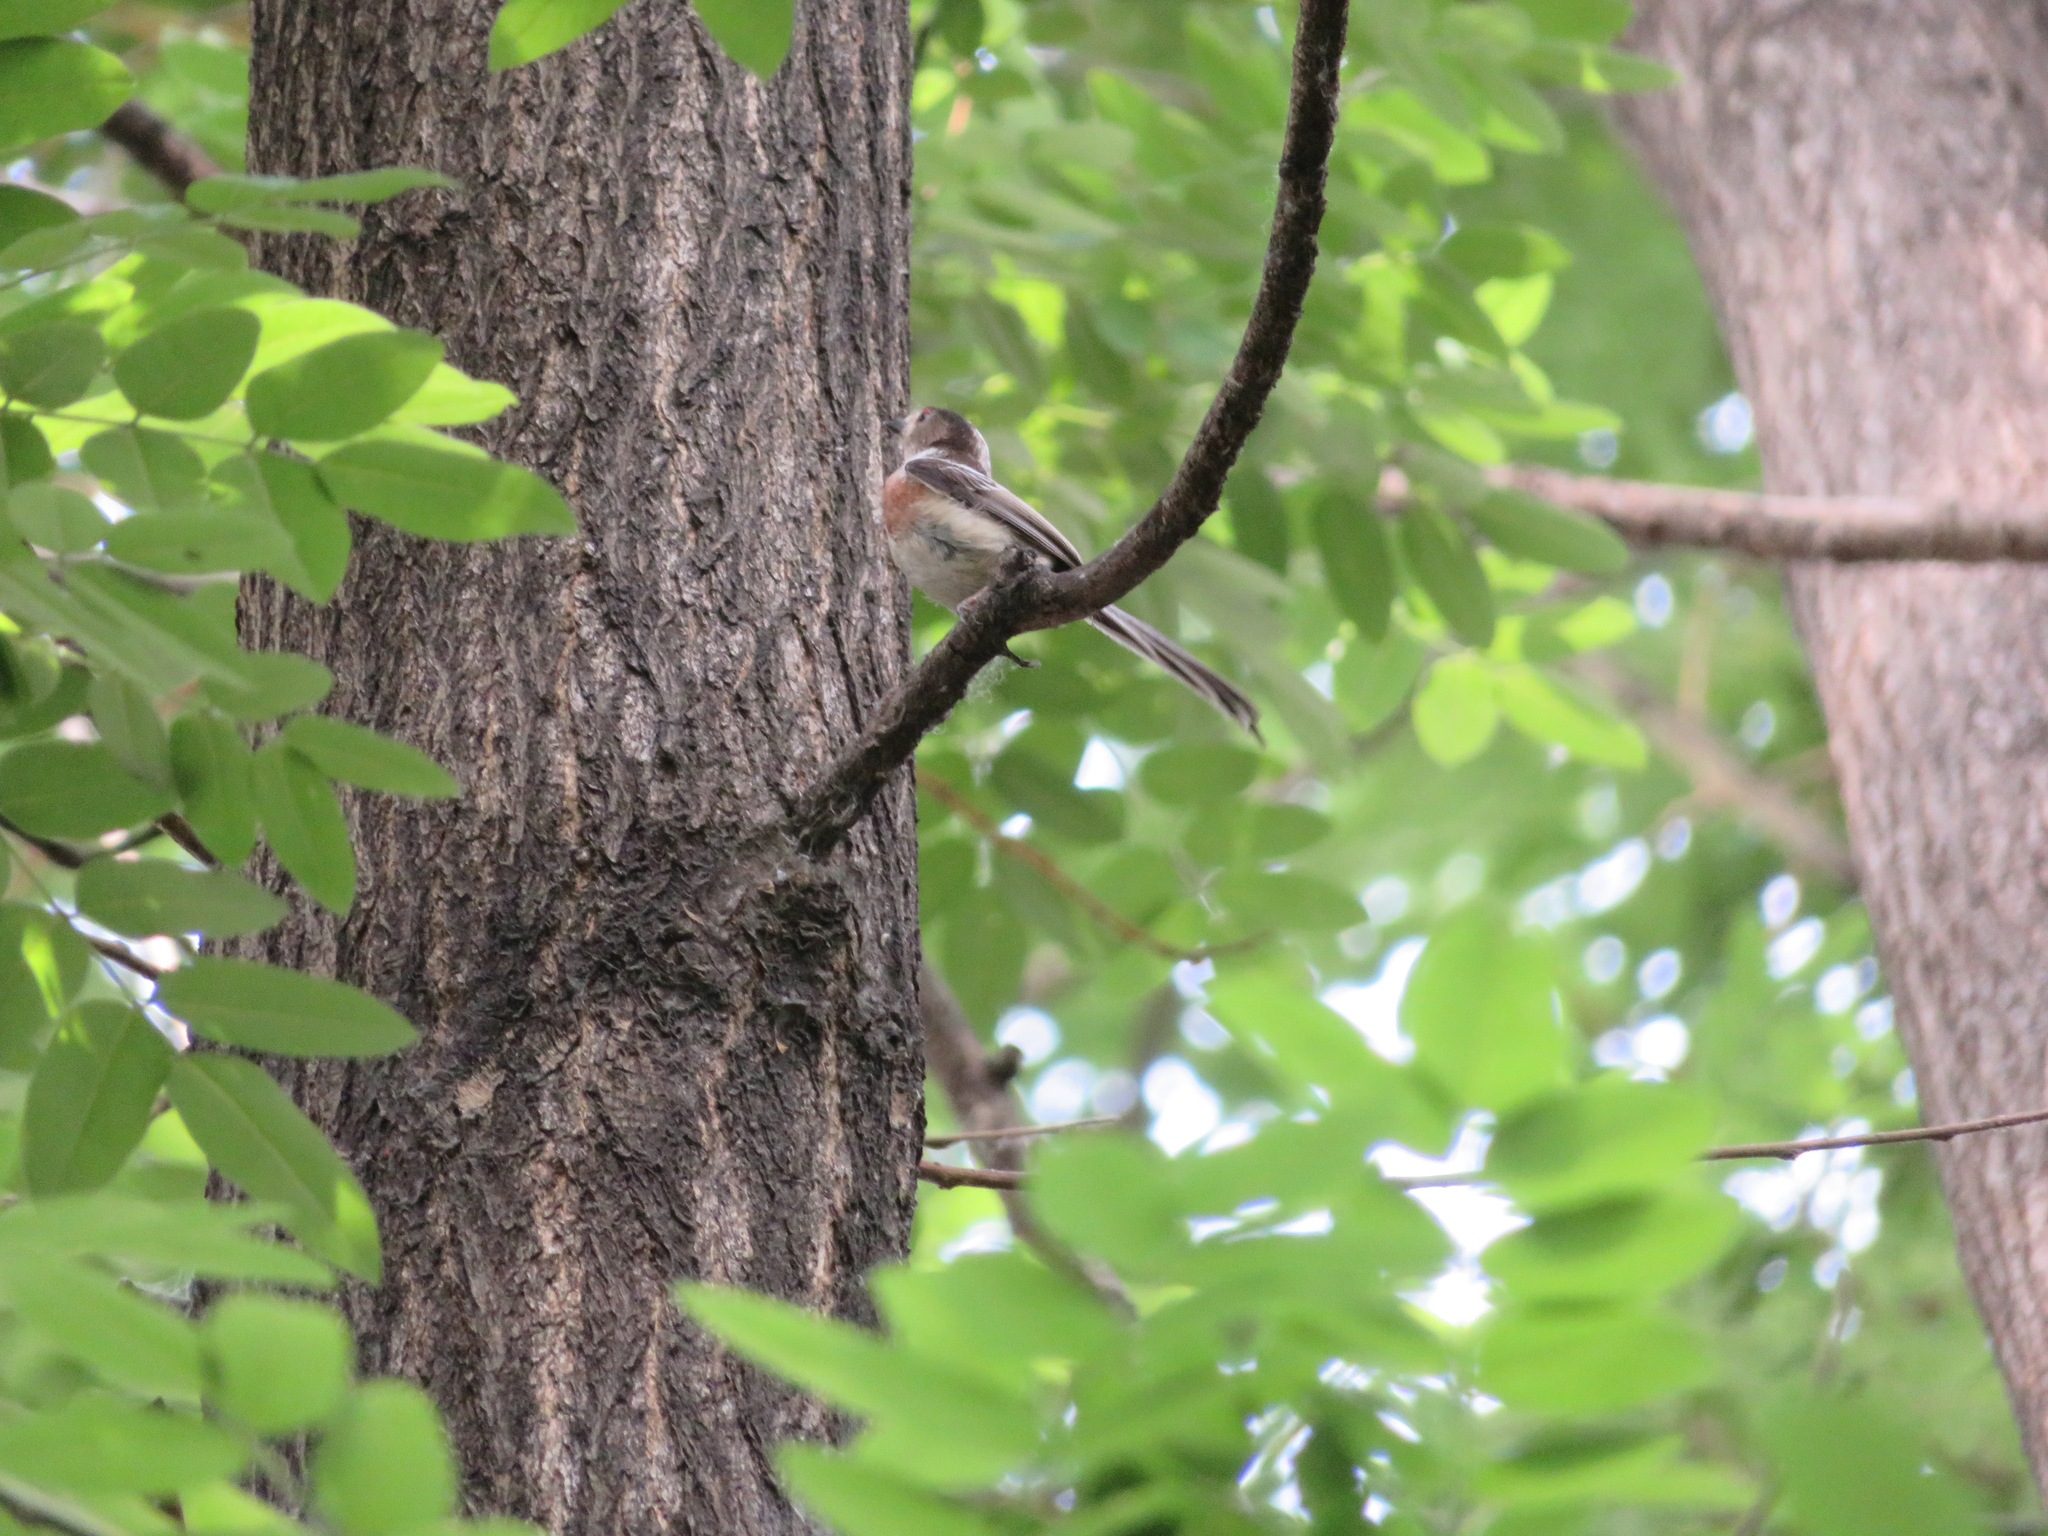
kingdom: Animalia
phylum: Chordata
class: Aves
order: Passeriformes
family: Aegithalidae
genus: Aegithalos
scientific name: Aegithalos glaucogularis
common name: Silver-throated bushtit
